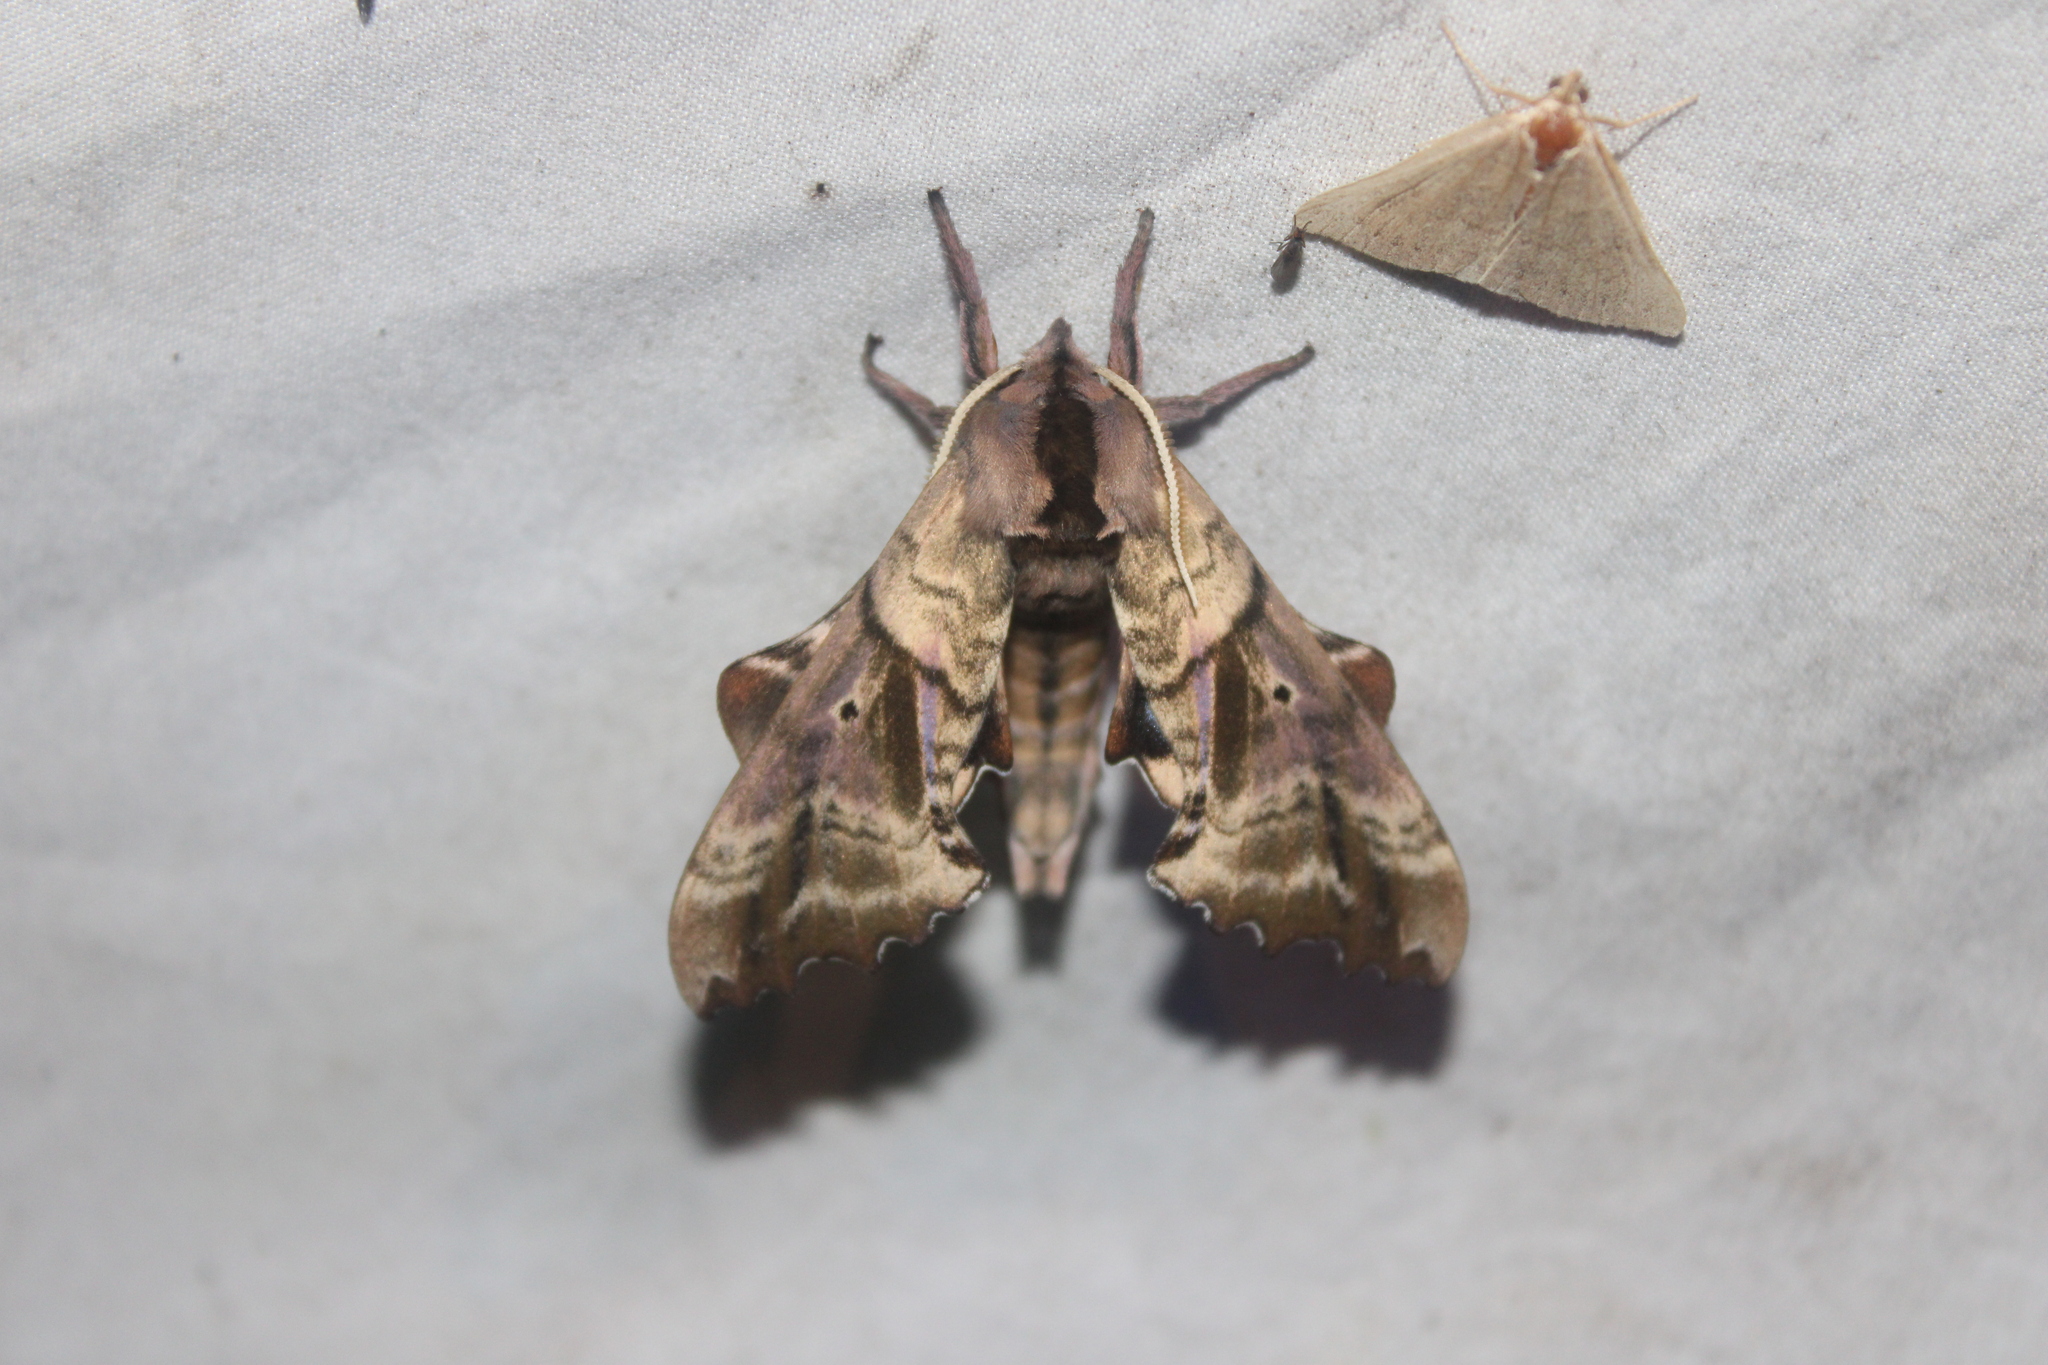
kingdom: Animalia
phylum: Arthropoda
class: Insecta
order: Lepidoptera
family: Sphingidae
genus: Paonias
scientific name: Paonias excaecata
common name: Blind-eyed sphinx
